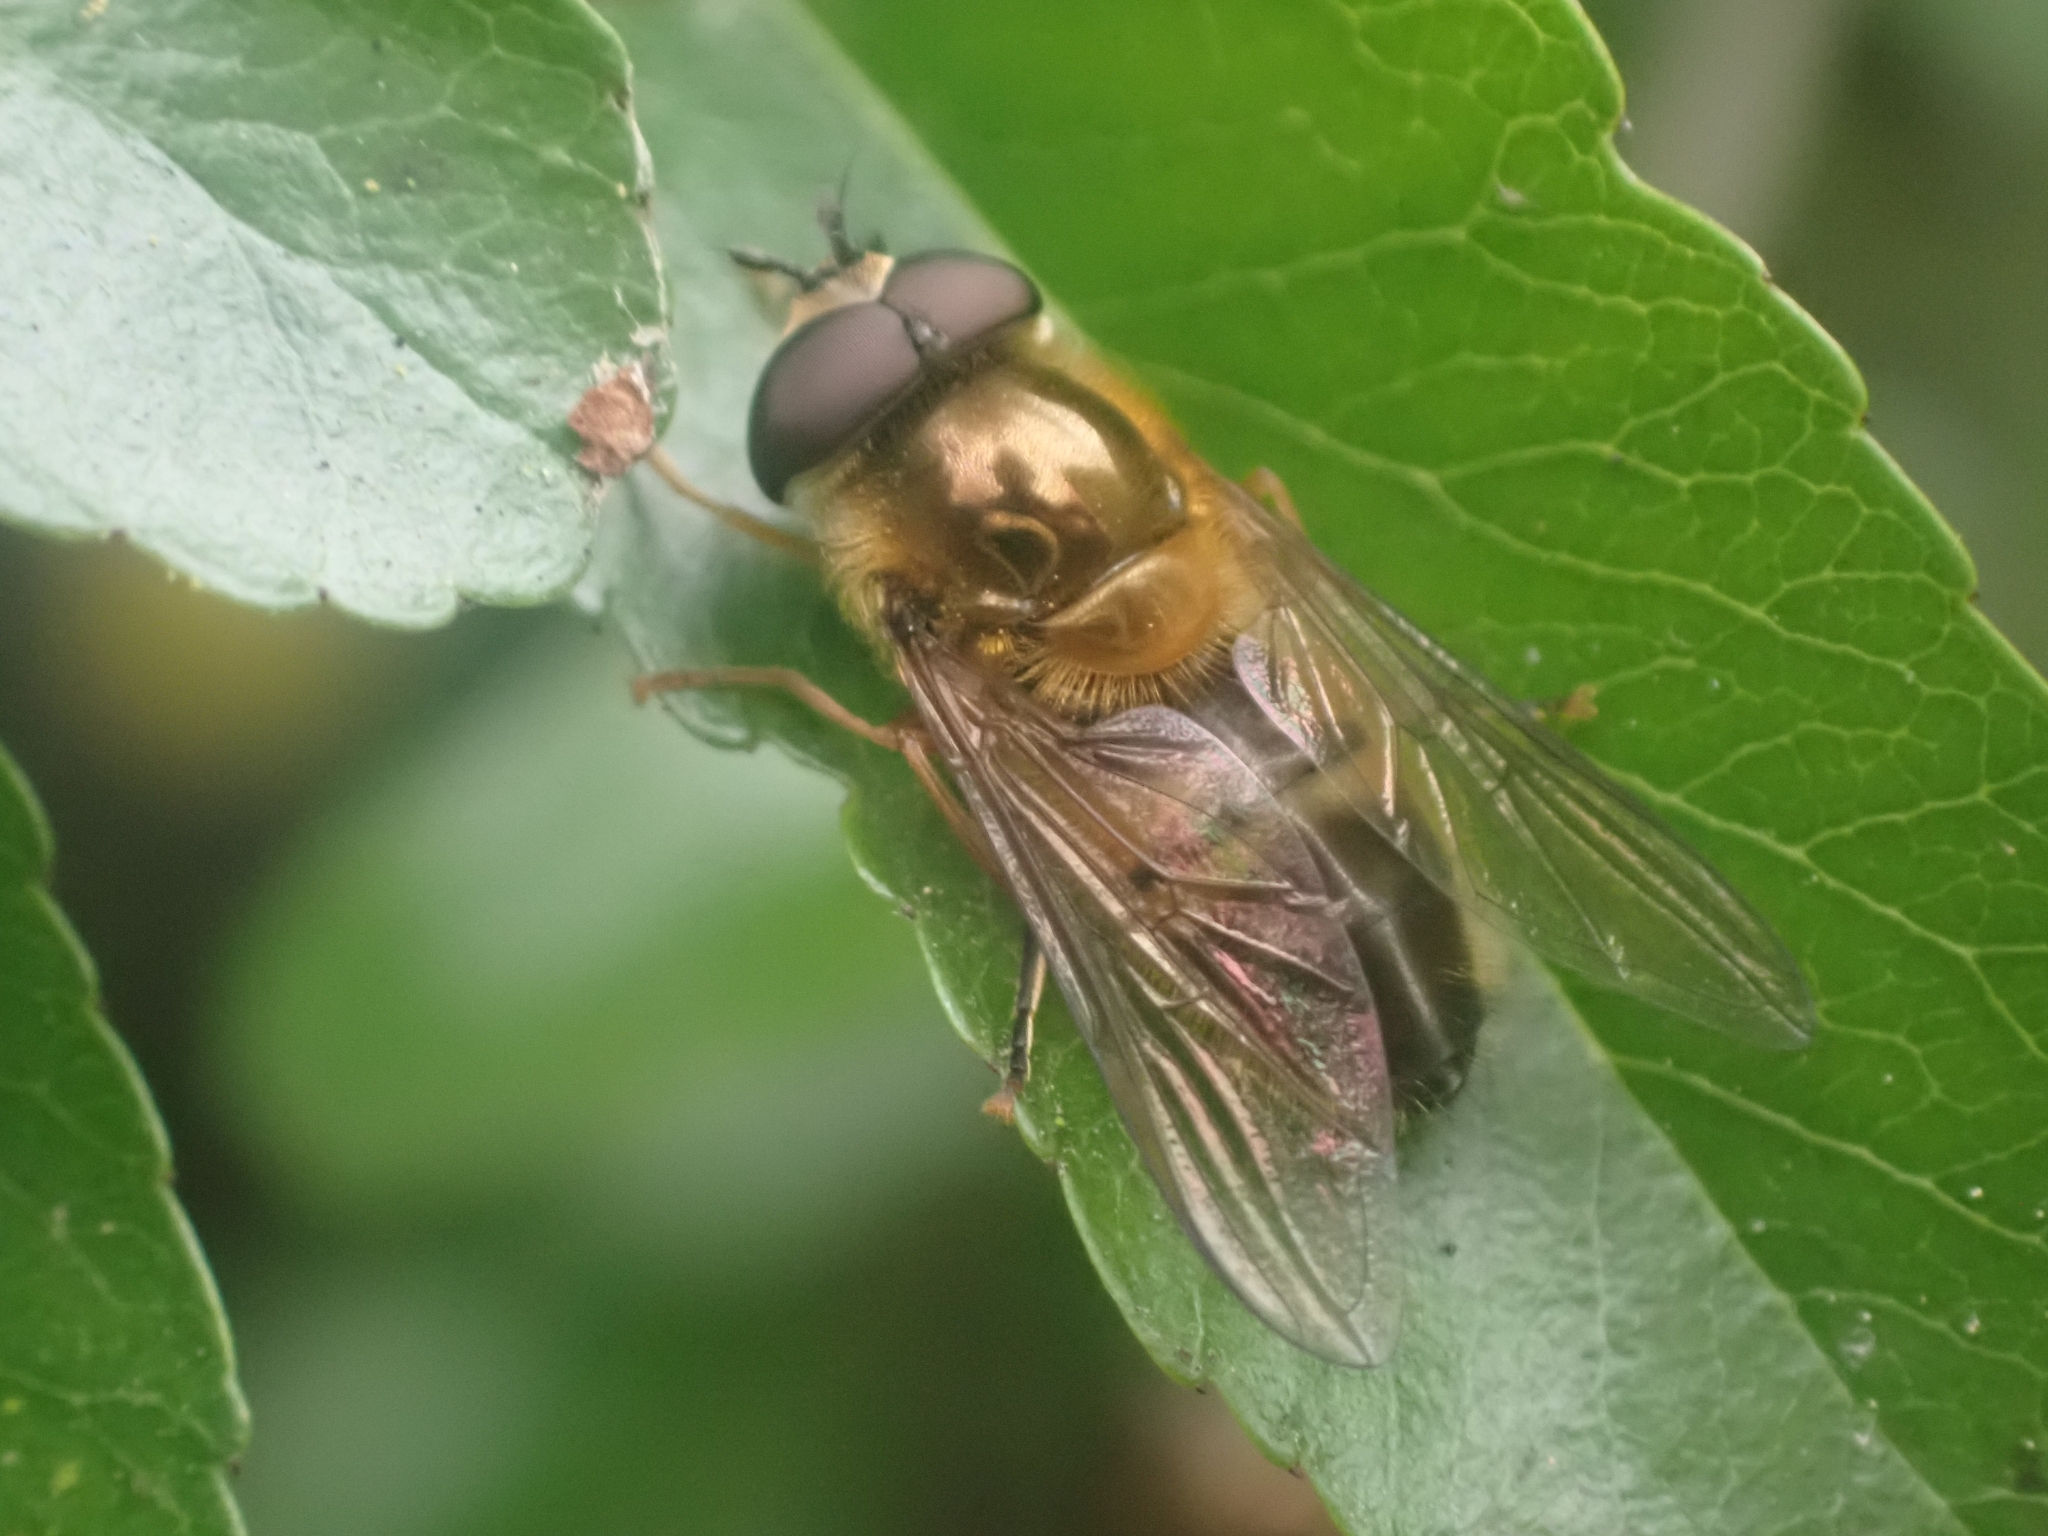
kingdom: Animalia
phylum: Arthropoda
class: Insecta
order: Diptera
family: Syrphidae
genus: Epistrophe
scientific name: Epistrophe eligans
